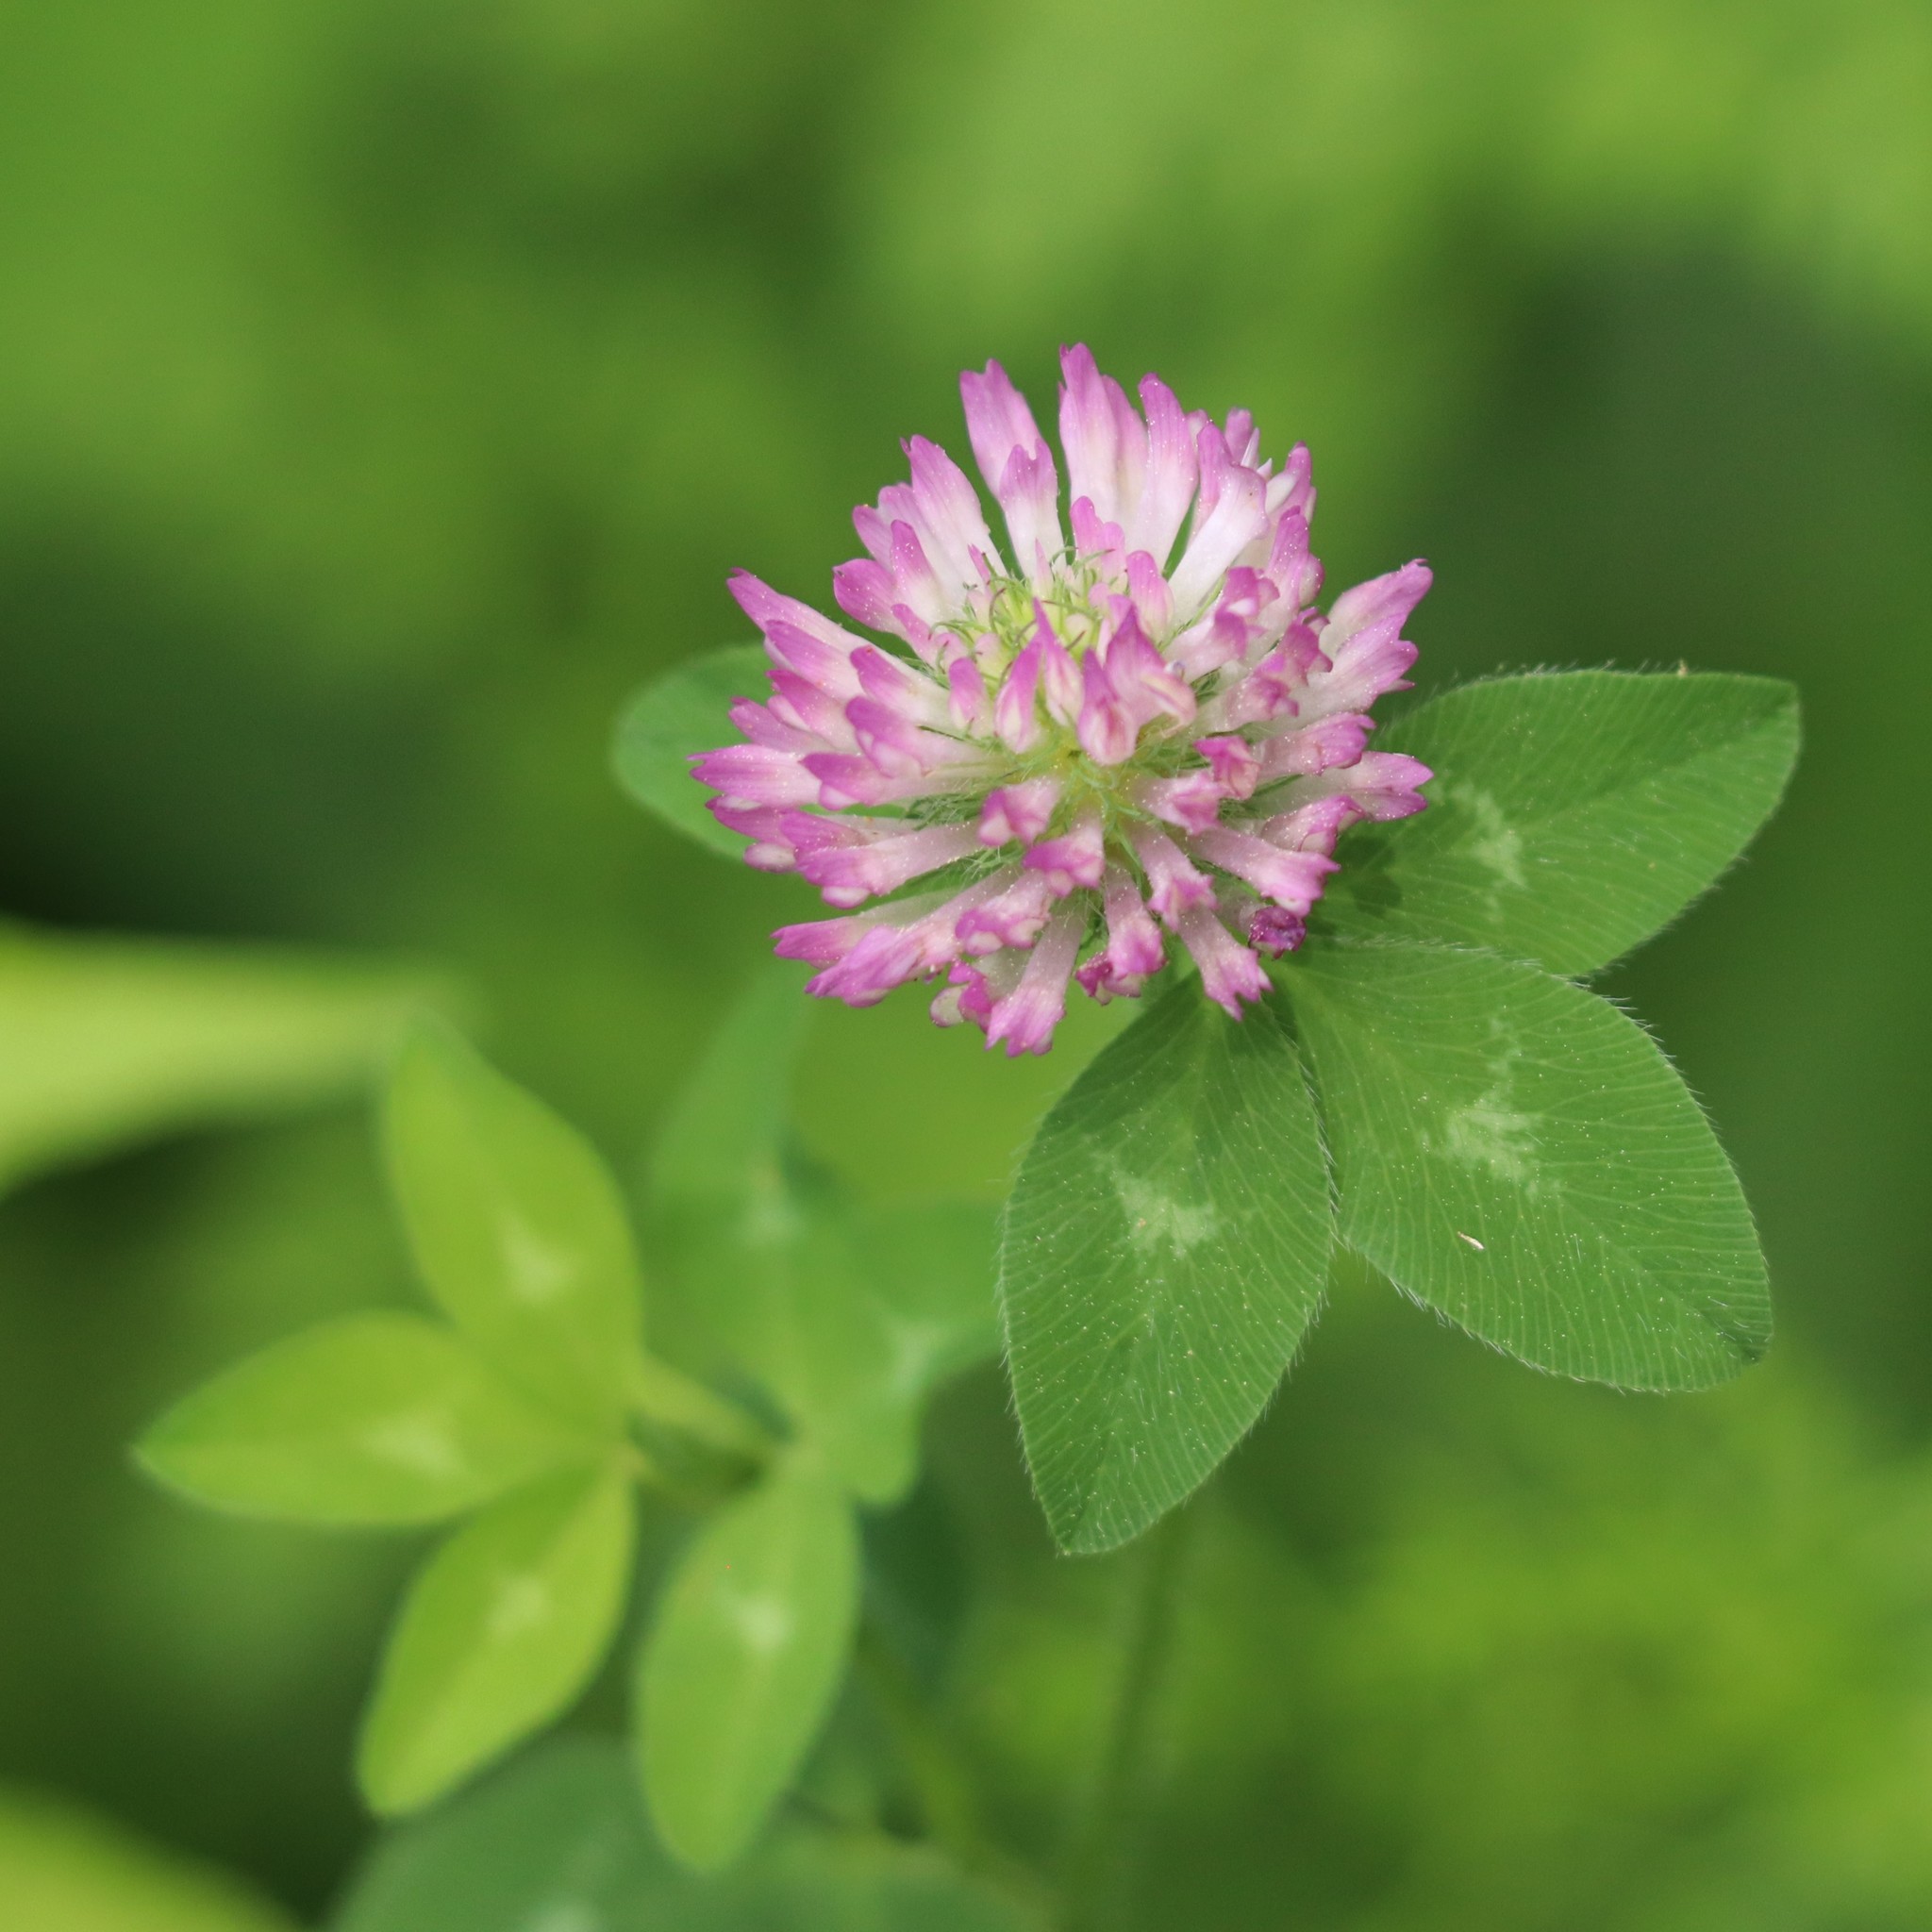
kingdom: Plantae
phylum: Tracheophyta
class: Magnoliopsida
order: Fabales
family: Fabaceae
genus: Trifolium
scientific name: Trifolium pratense
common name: Red clover
